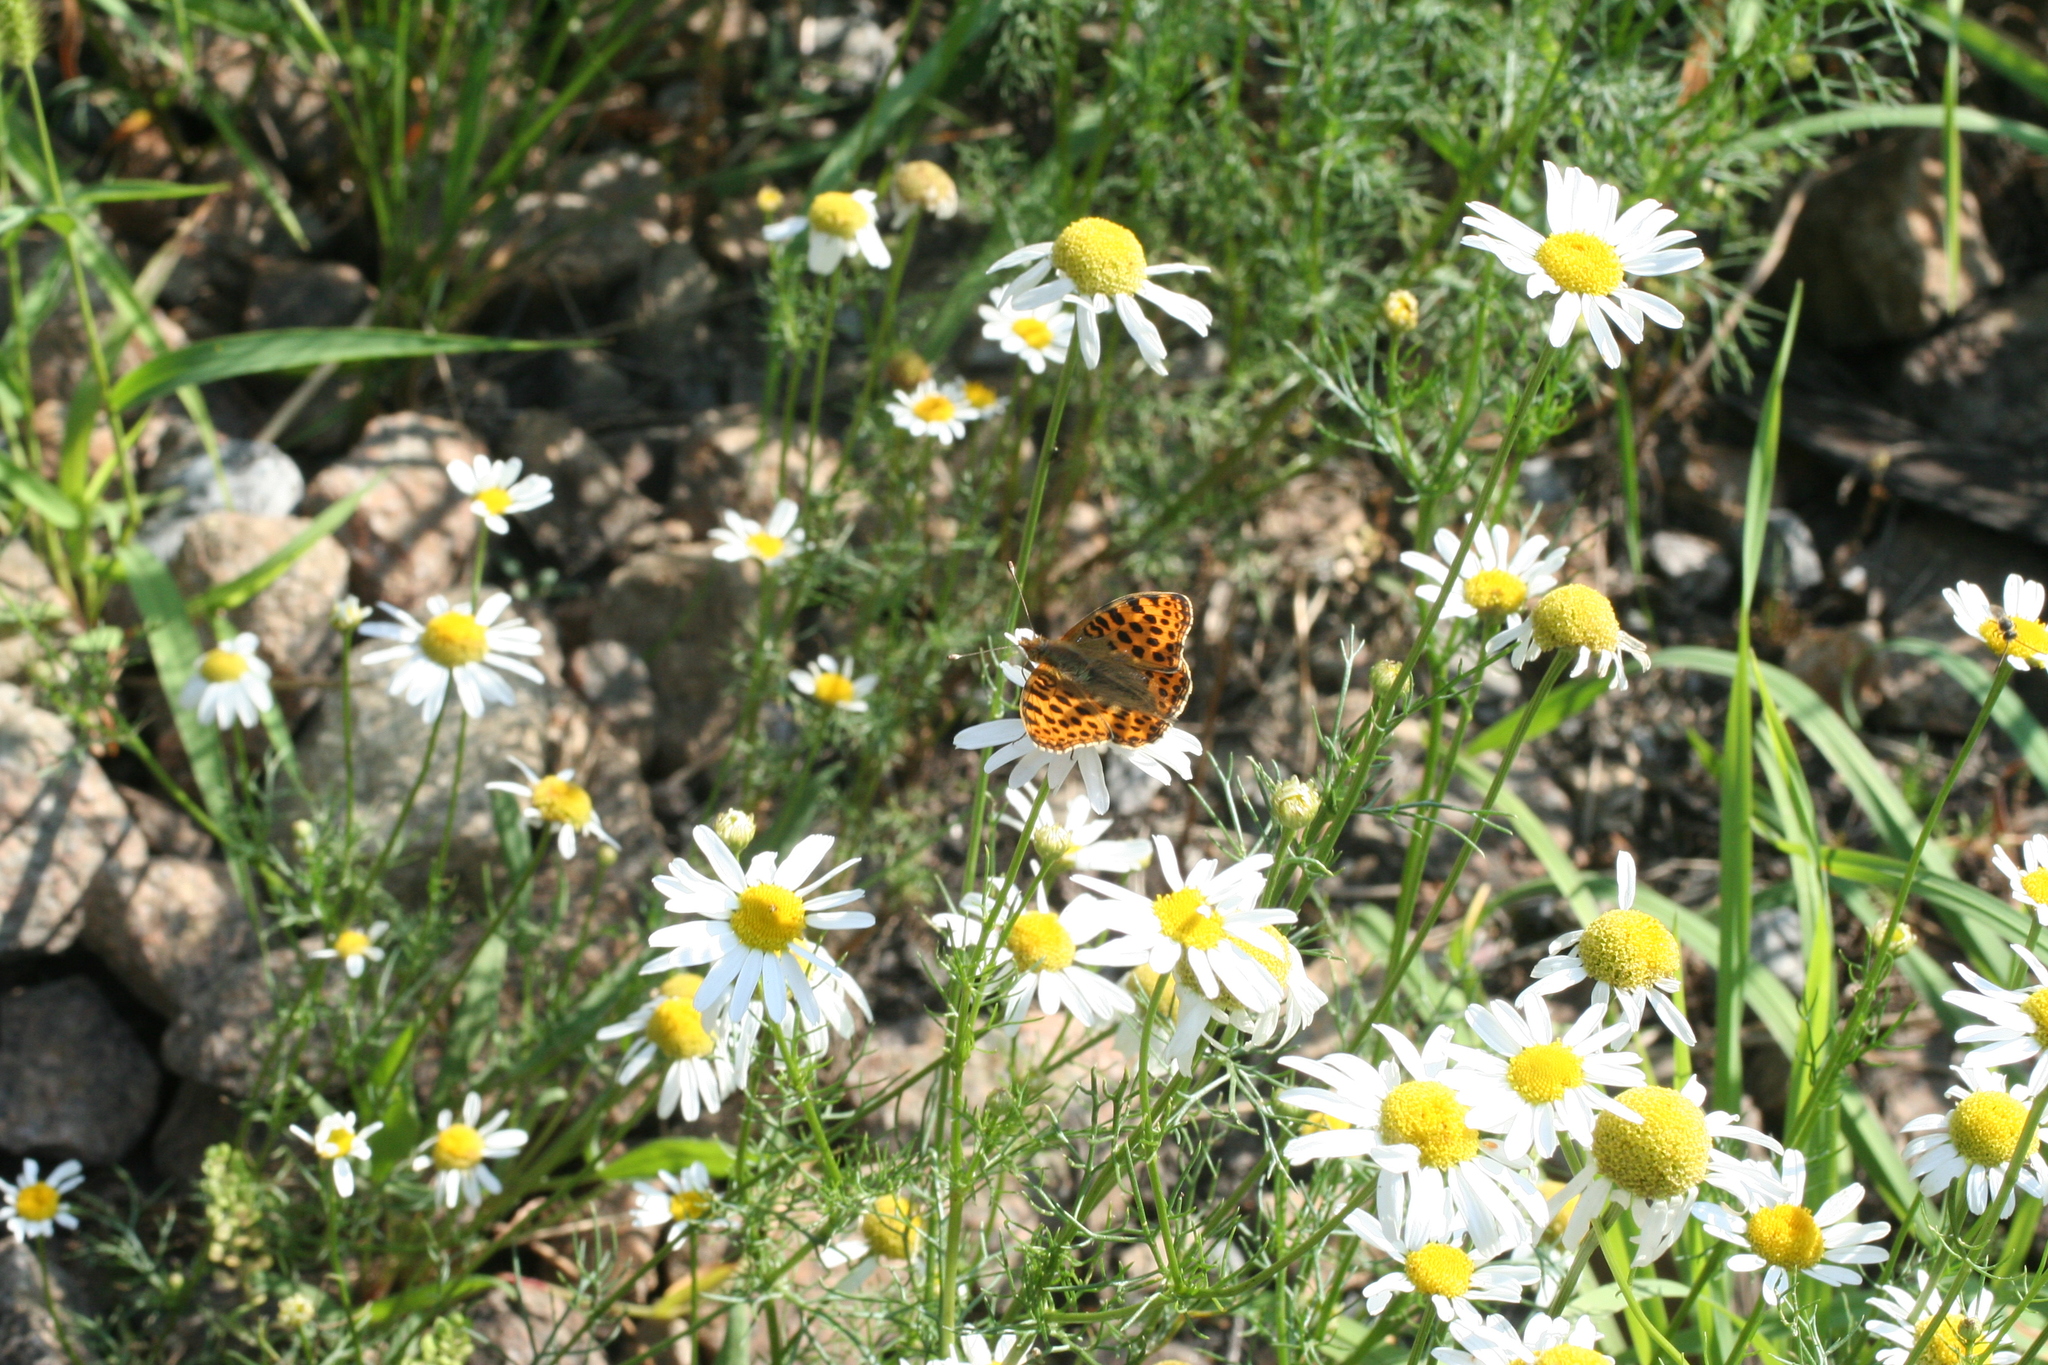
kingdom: Animalia
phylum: Arthropoda
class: Insecta
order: Lepidoptera
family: Nymphalidae
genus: Issoria
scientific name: Issoria lathonia
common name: Queen of spain fritillary
